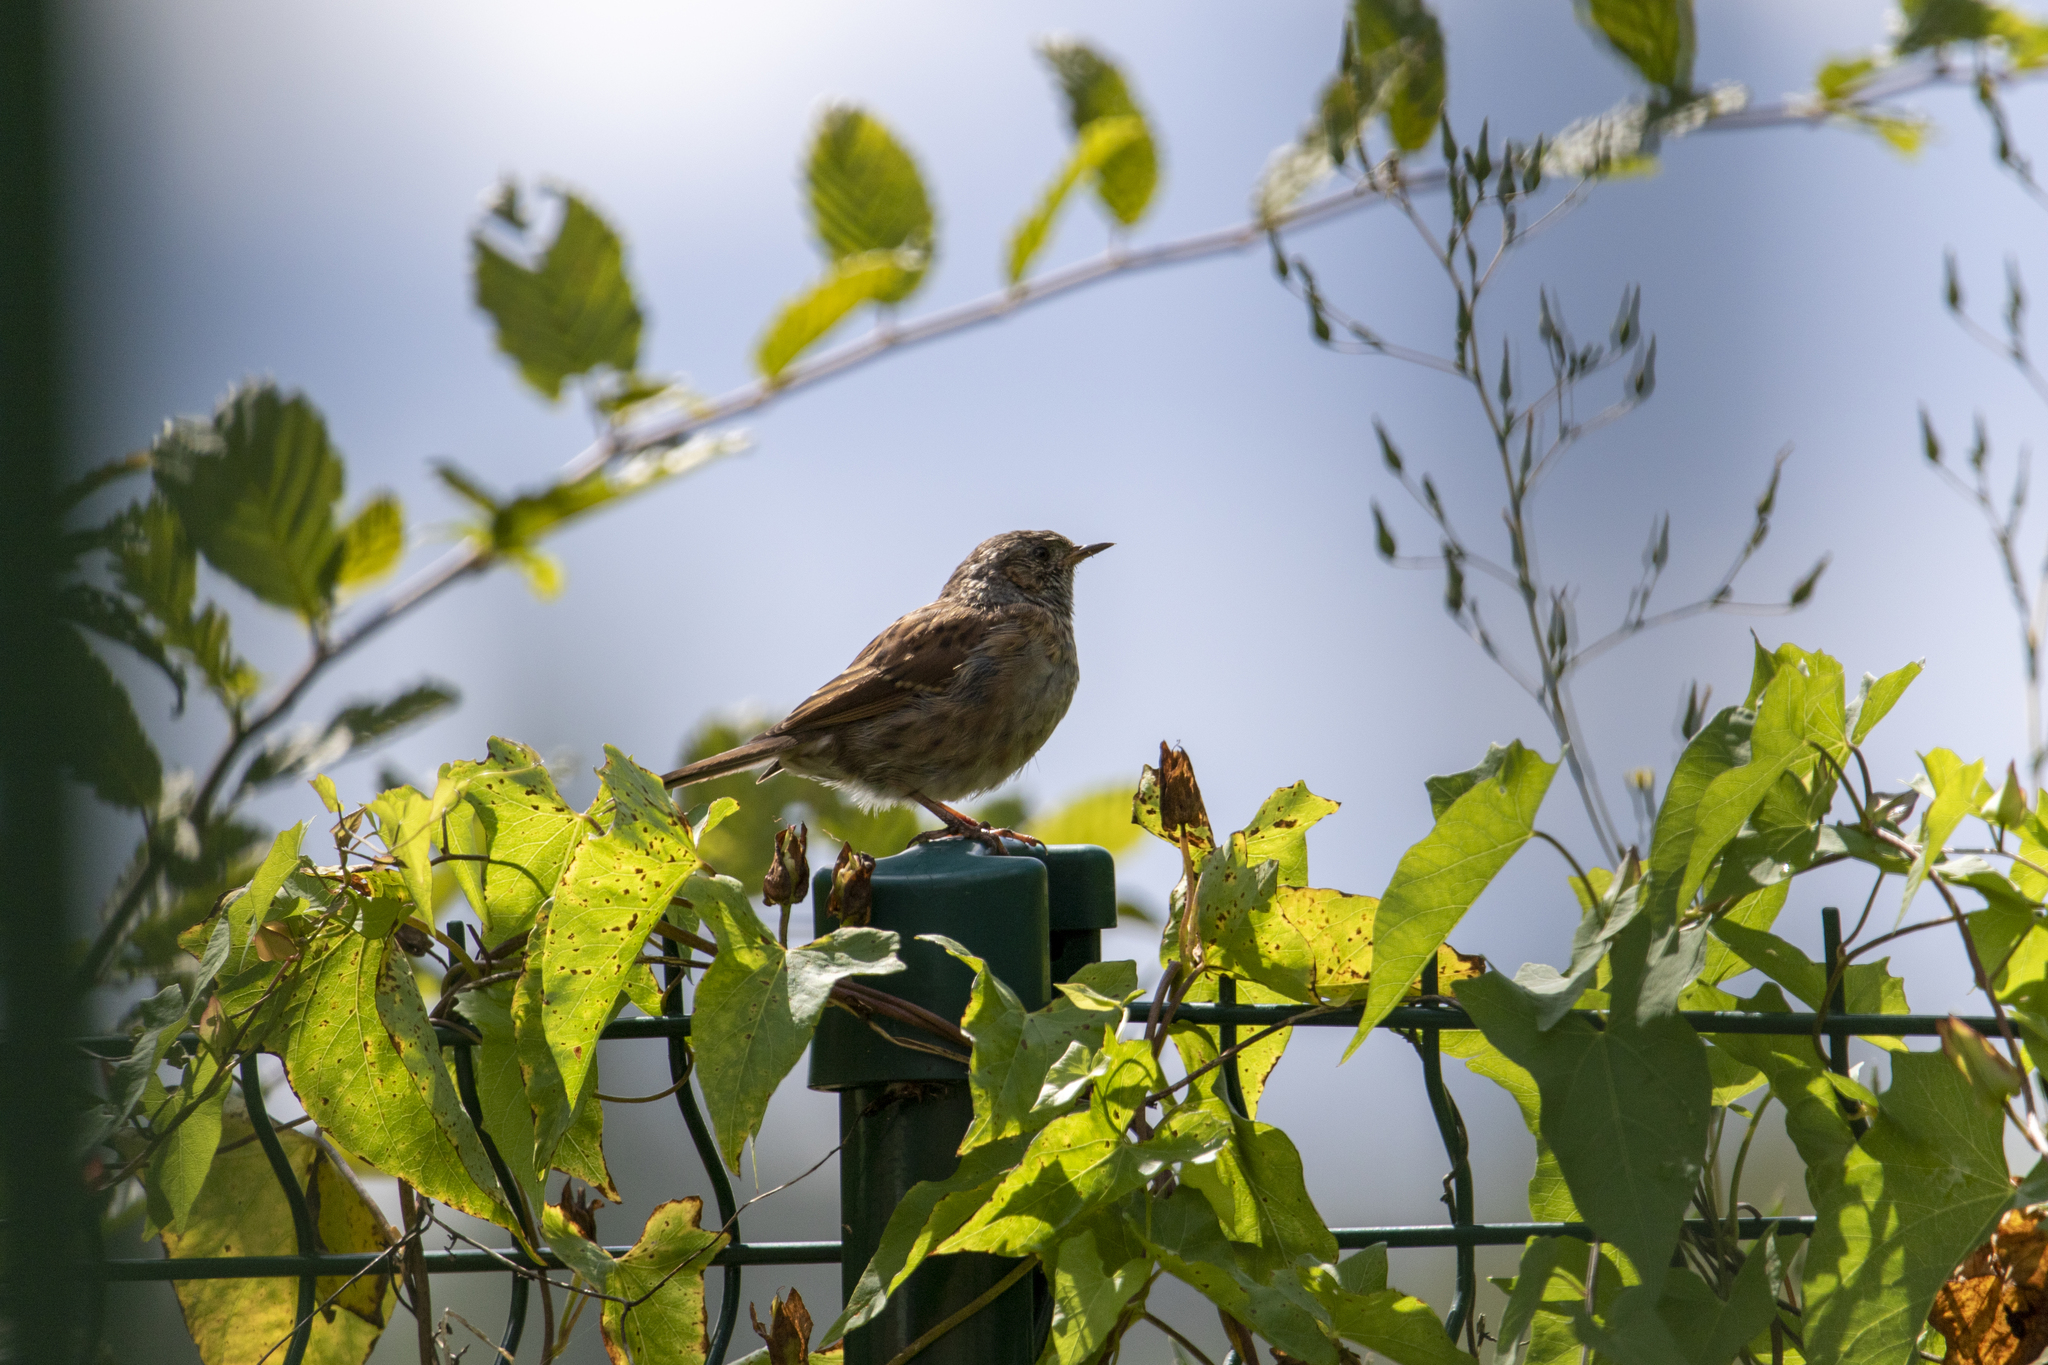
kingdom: Animalia
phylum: Chordata
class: Aves
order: Passeriformes
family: Prunellidae
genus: Prunella
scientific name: Prunella modularis
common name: Dunnock
